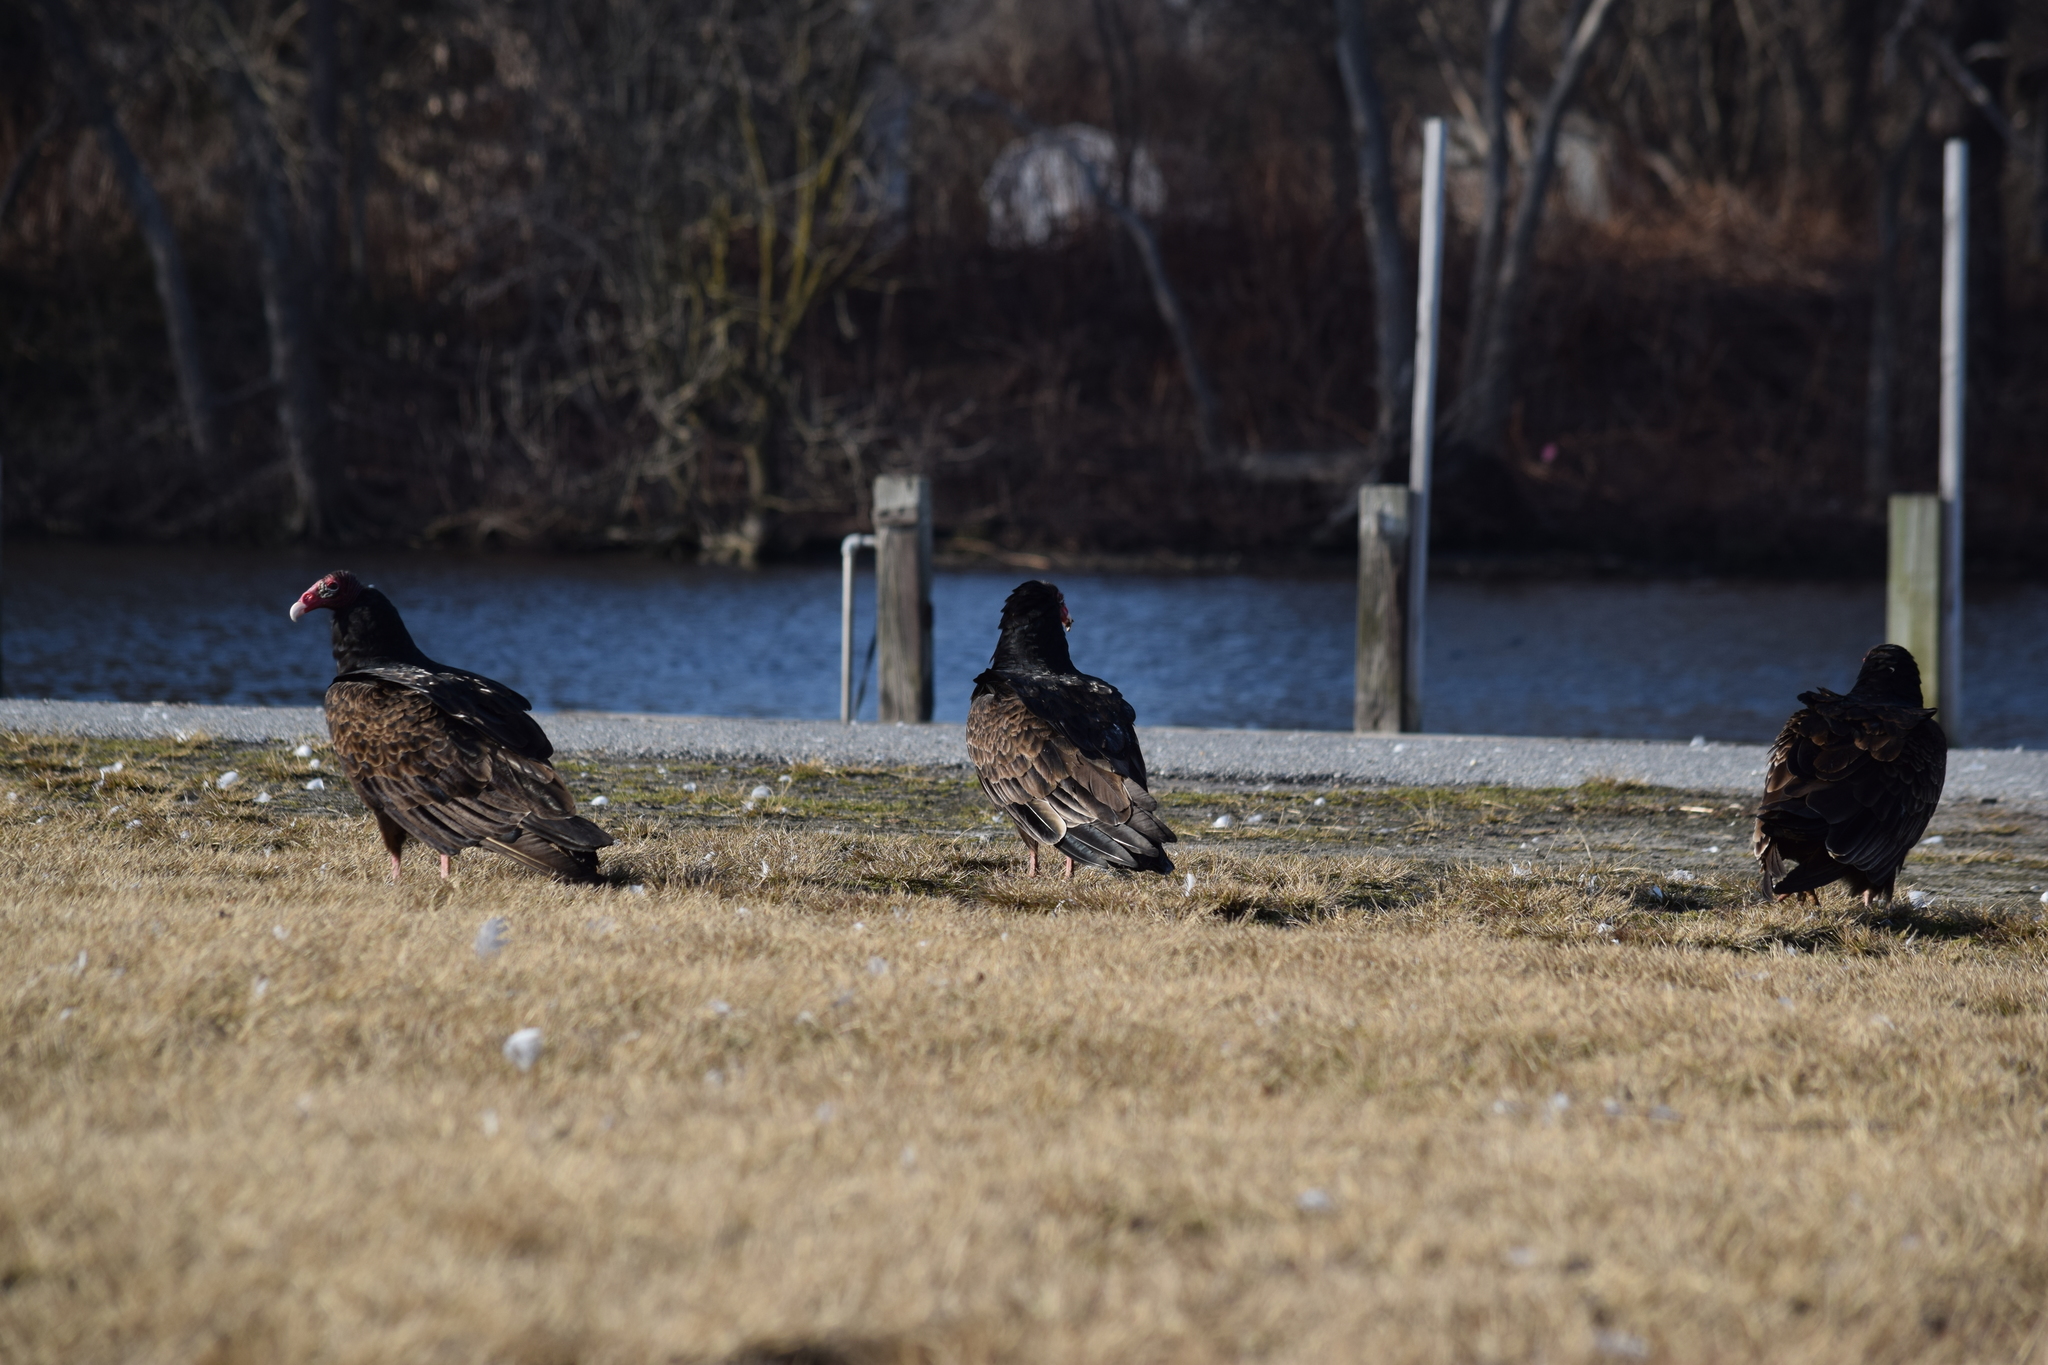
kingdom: Animalia
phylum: Chordata
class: Aves
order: Accipitriformes
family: Cathartidae
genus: Cathartes
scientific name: Cathartes aura
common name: Turkey vulture
